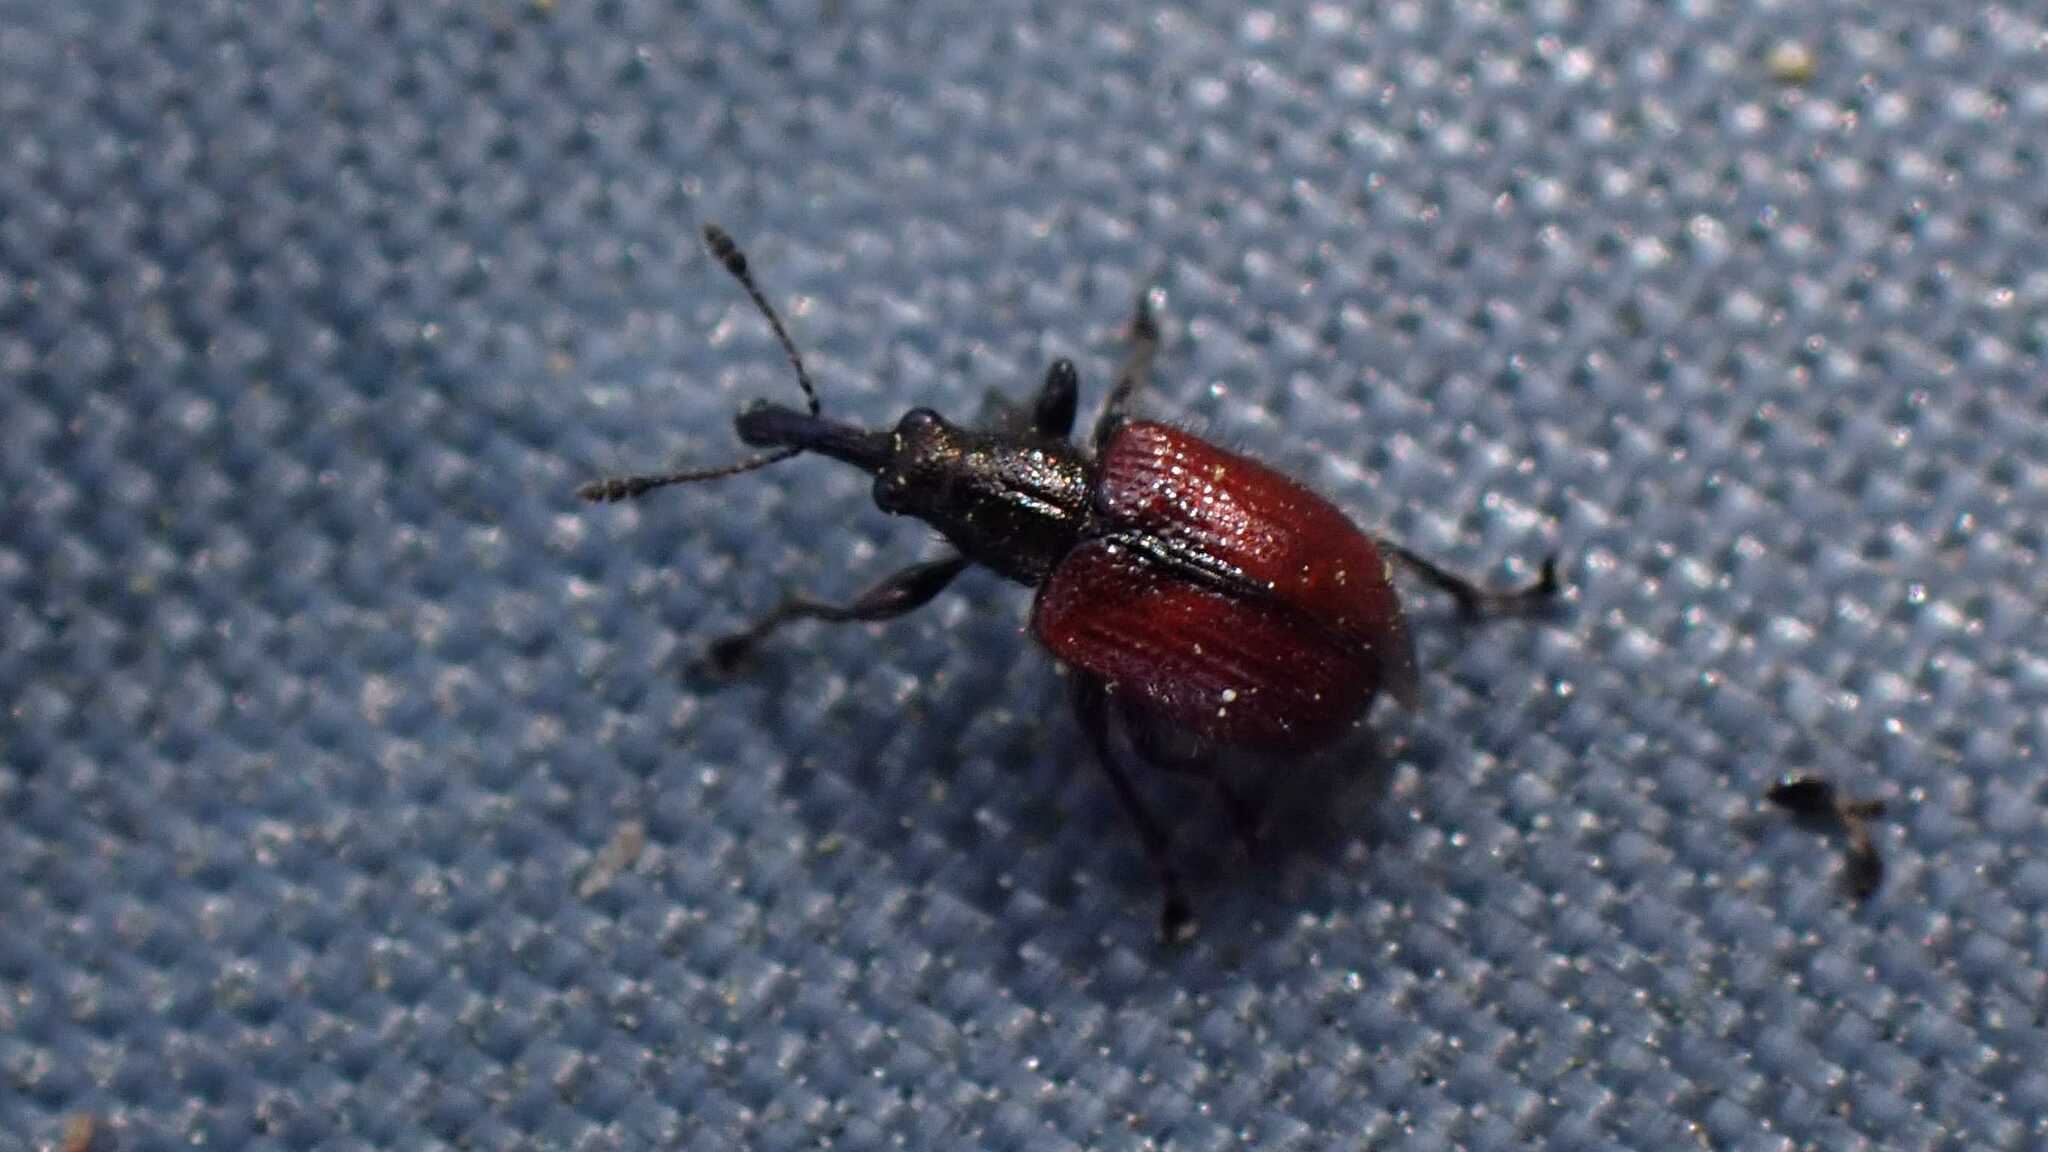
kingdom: Animalia
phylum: Arthropoda
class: Insecta
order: Coleoptera
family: Rhynchitidae
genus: Tatianaerhynchites
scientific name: Tatianaerhynchites aequatus
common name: Apple fruit rhynchites
